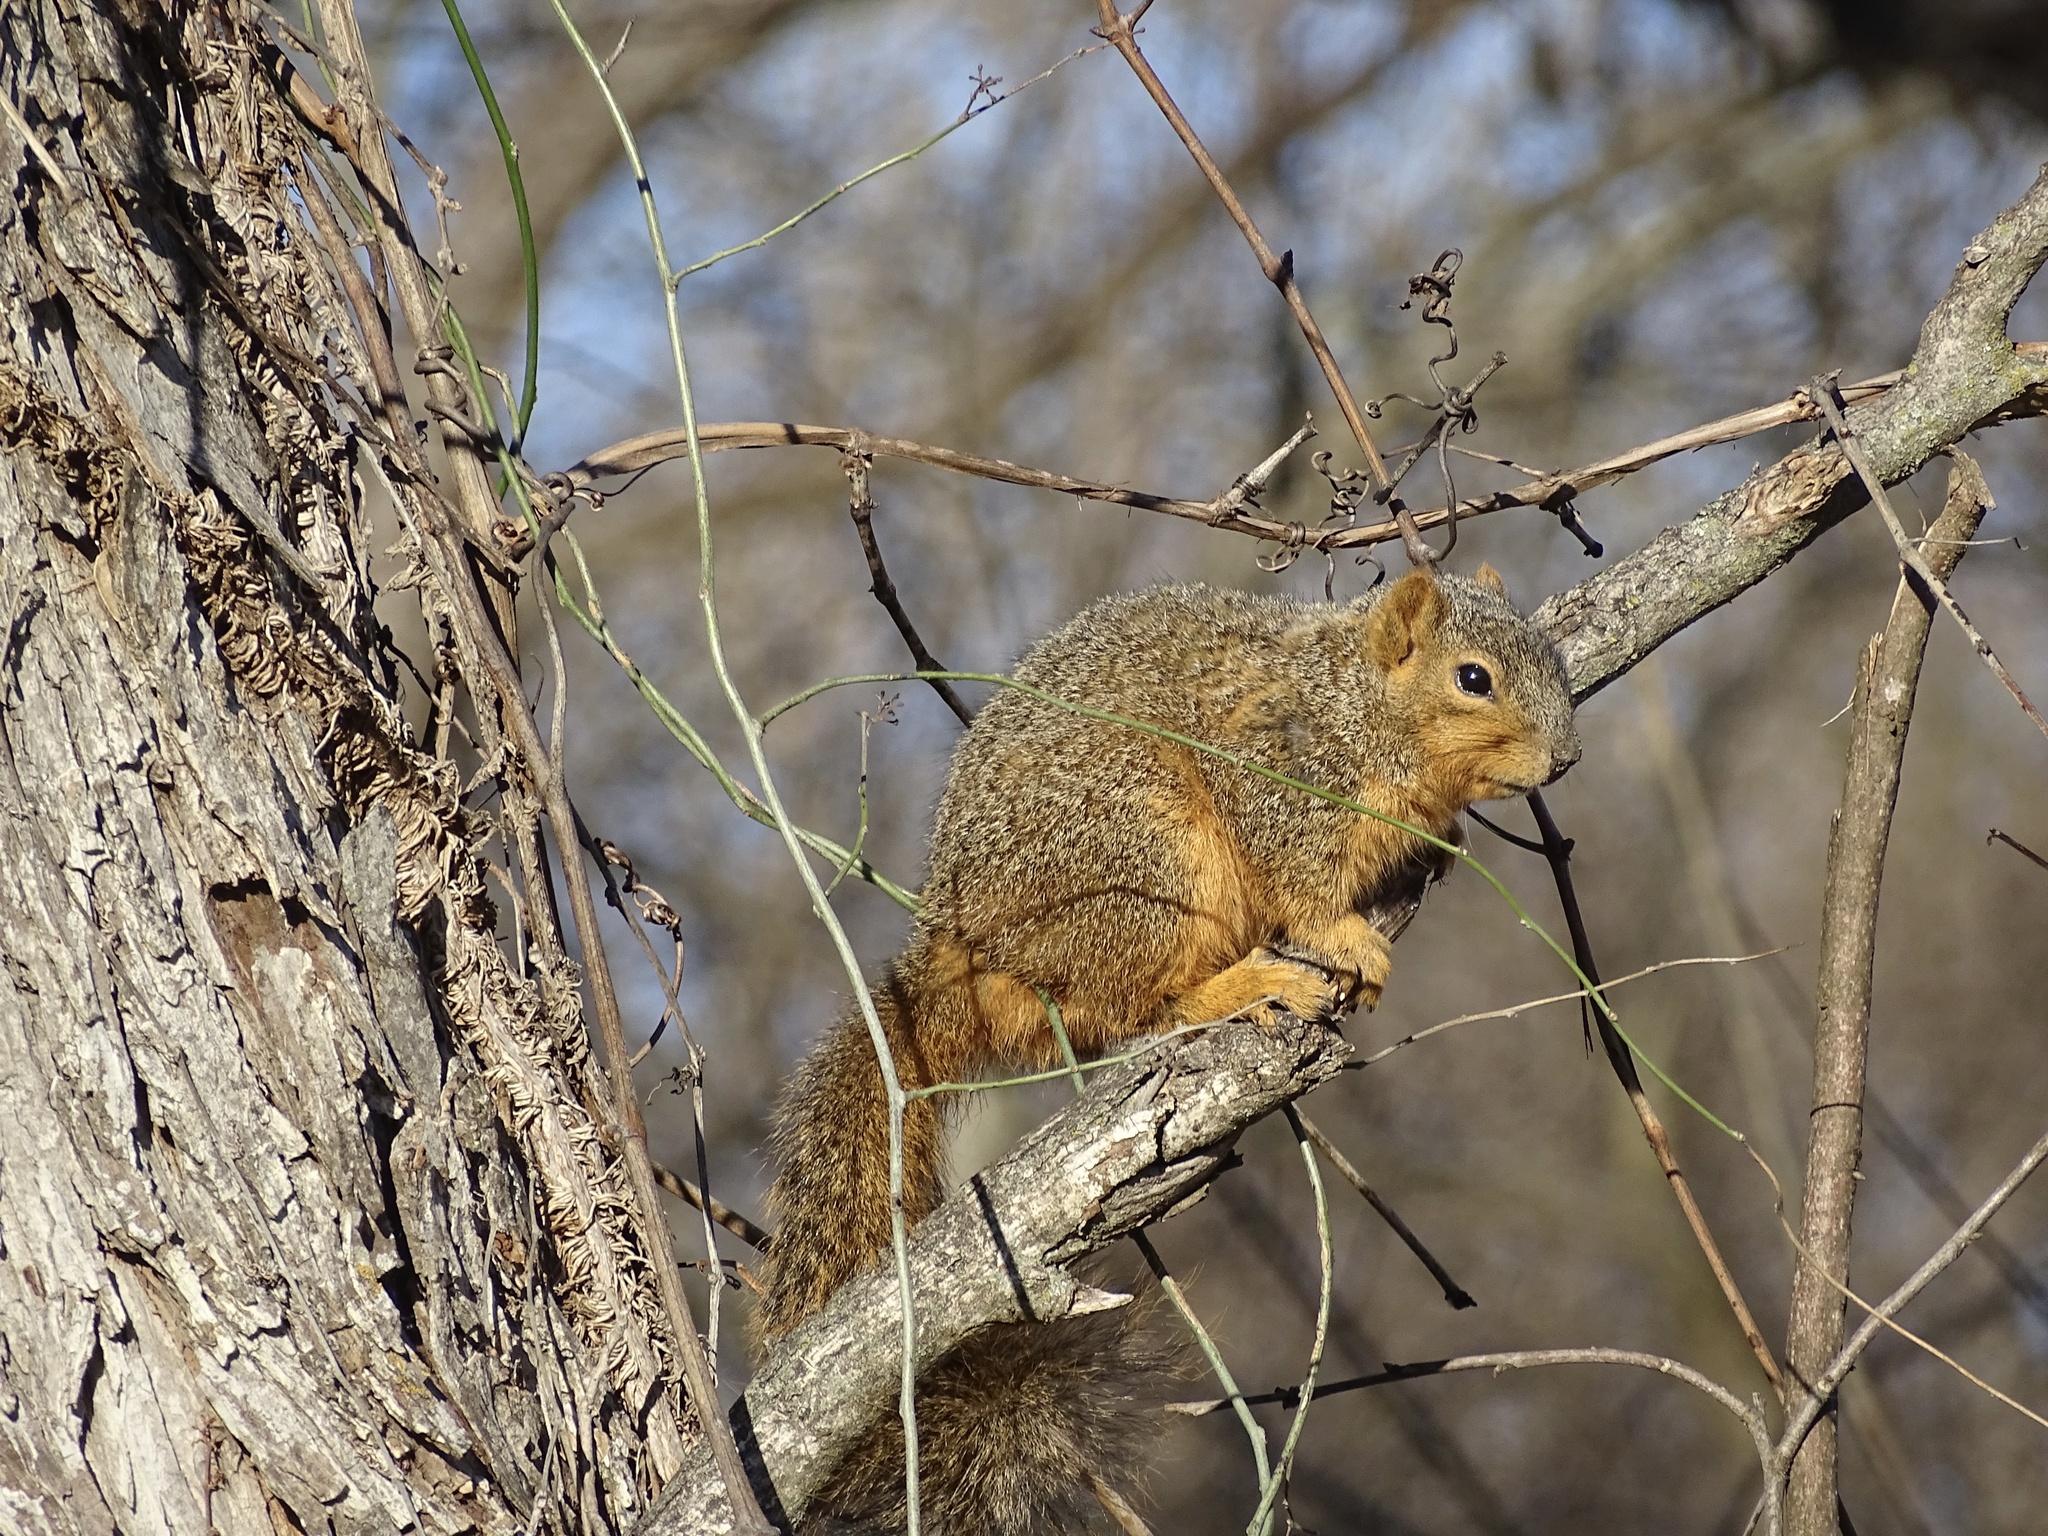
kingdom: Animalia
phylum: Chordata
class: Mammalia
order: Rodentia
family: Sciuridae
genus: Sciurus
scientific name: Sciurus niger
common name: Fox squirrel
